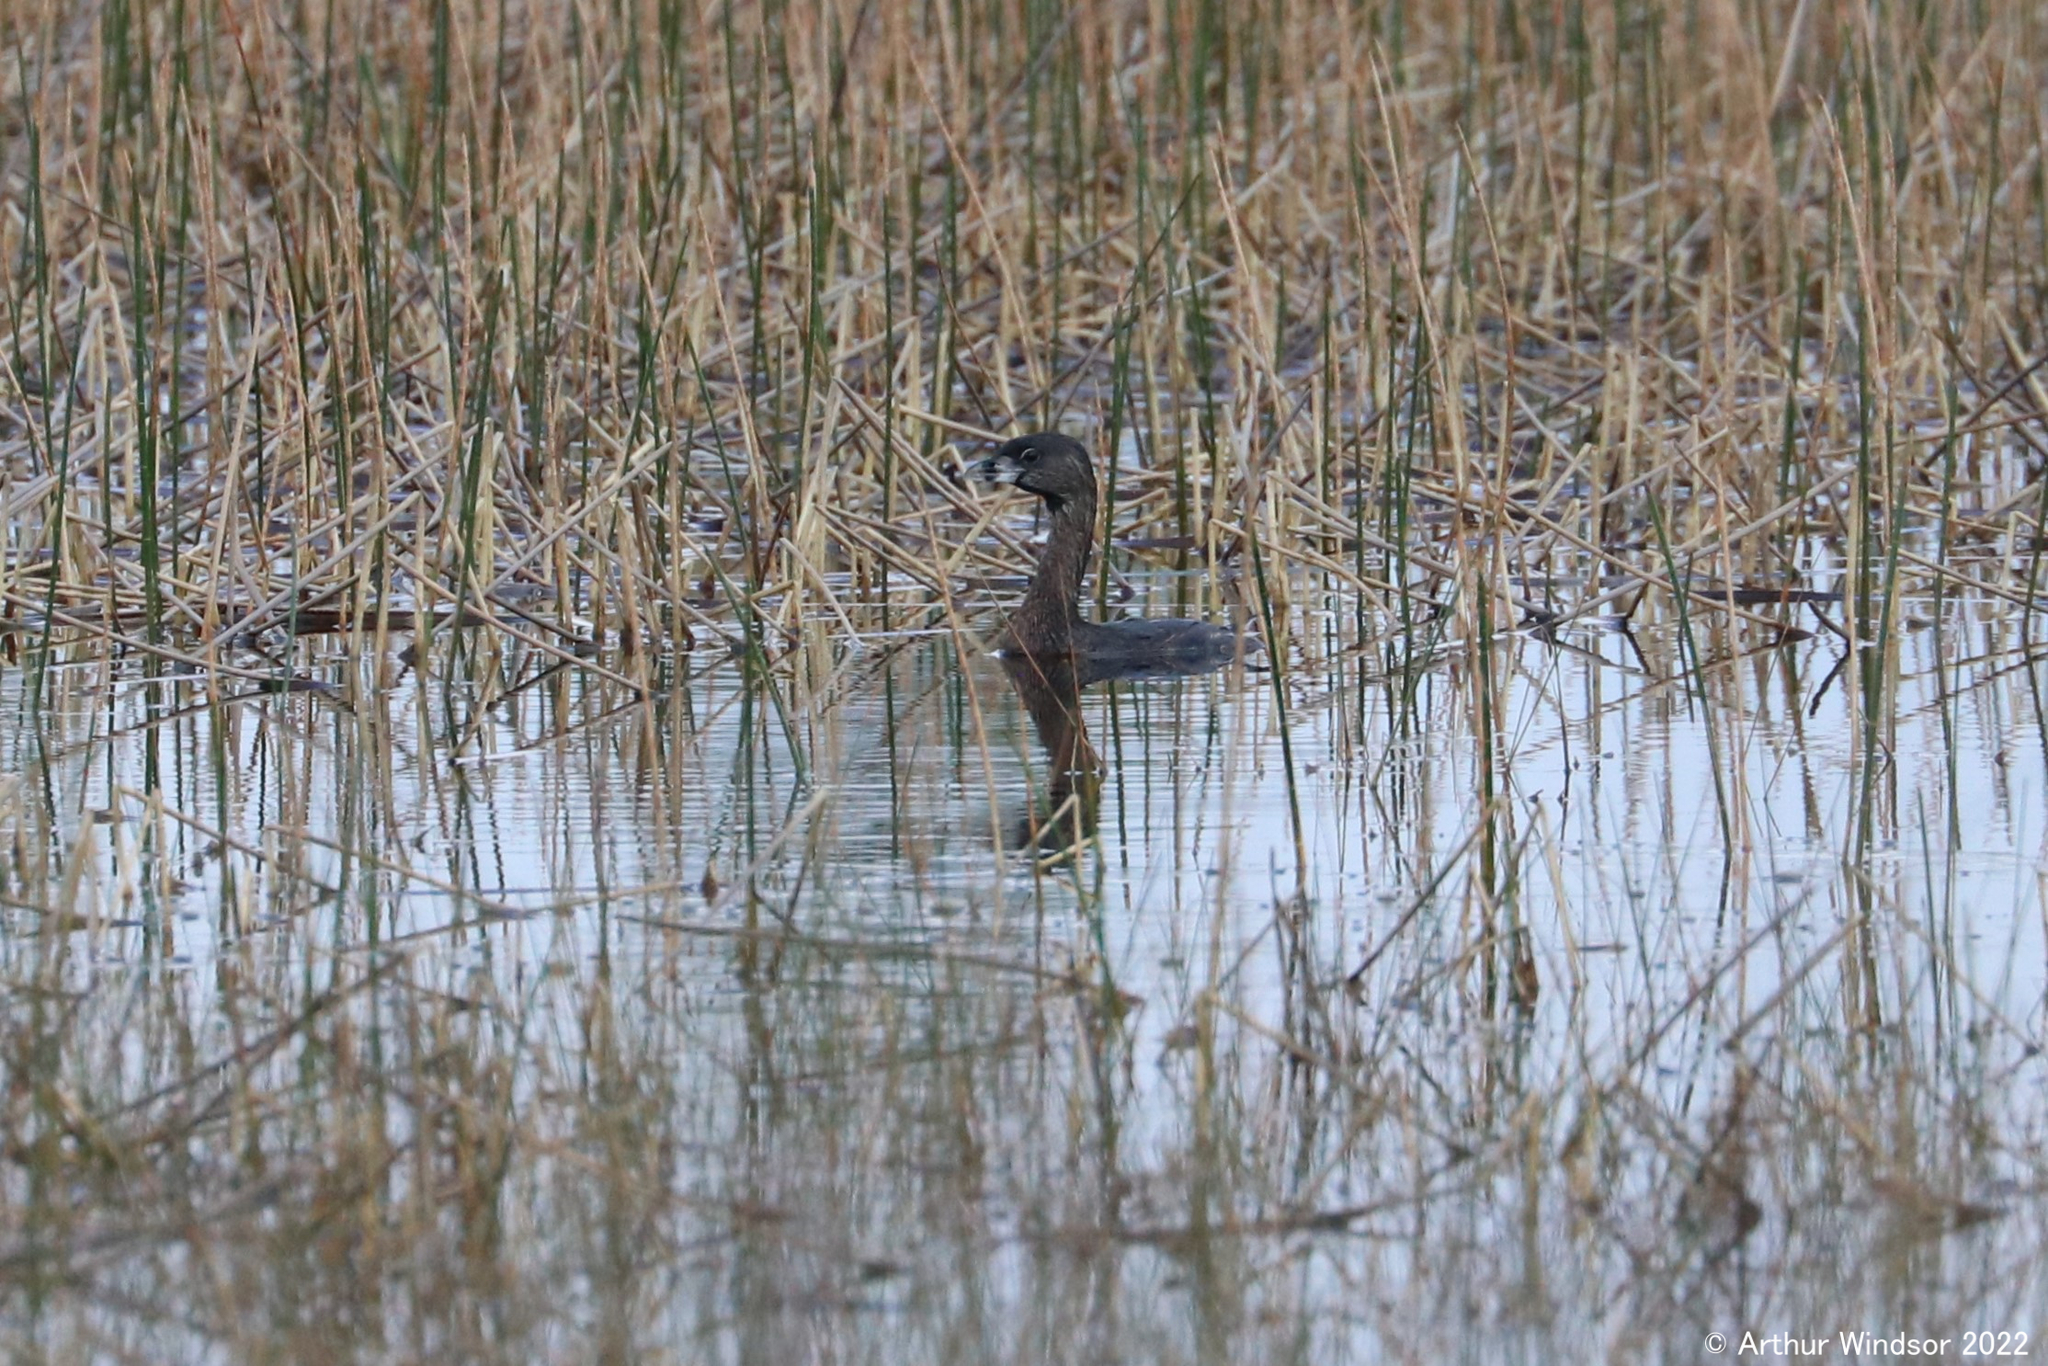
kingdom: Animalia
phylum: Chordata
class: Aves
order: Podicipediformes
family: Podicipedidae
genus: Podilymbus
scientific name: Podilymbus podiceps
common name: Pied-billed grebe
